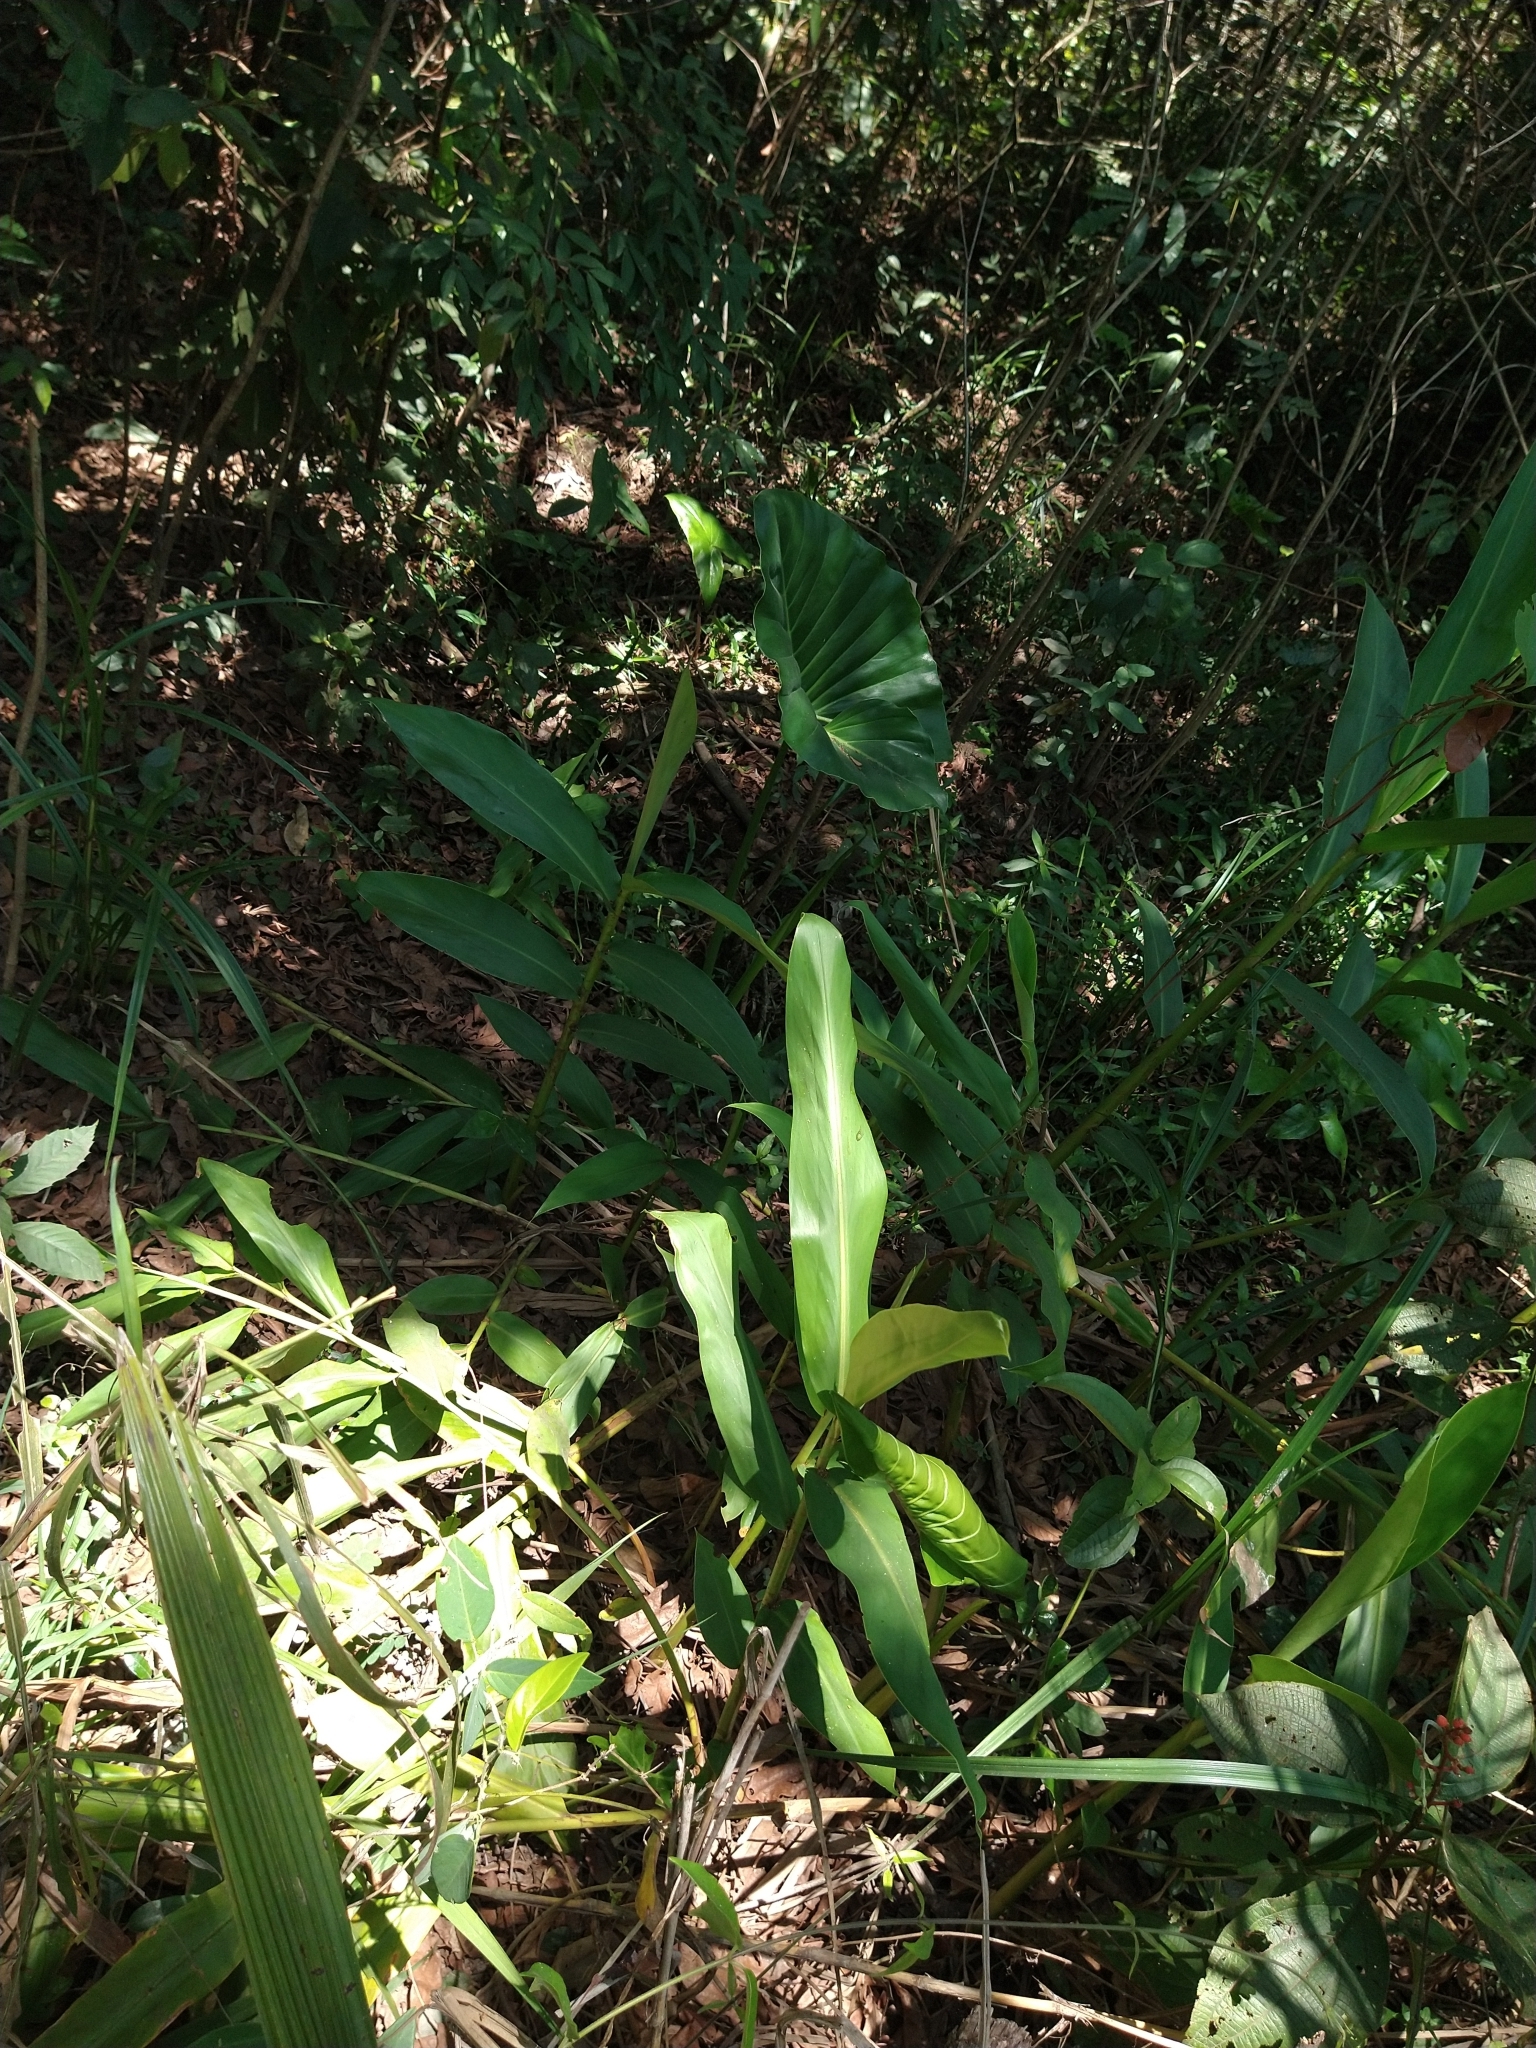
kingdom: Plantae
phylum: Tracheophyta
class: Liliopsida
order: Zingiberales
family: Zingiberaceae
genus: Hedychium
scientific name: Hedychium coronarium
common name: White garland-lily
